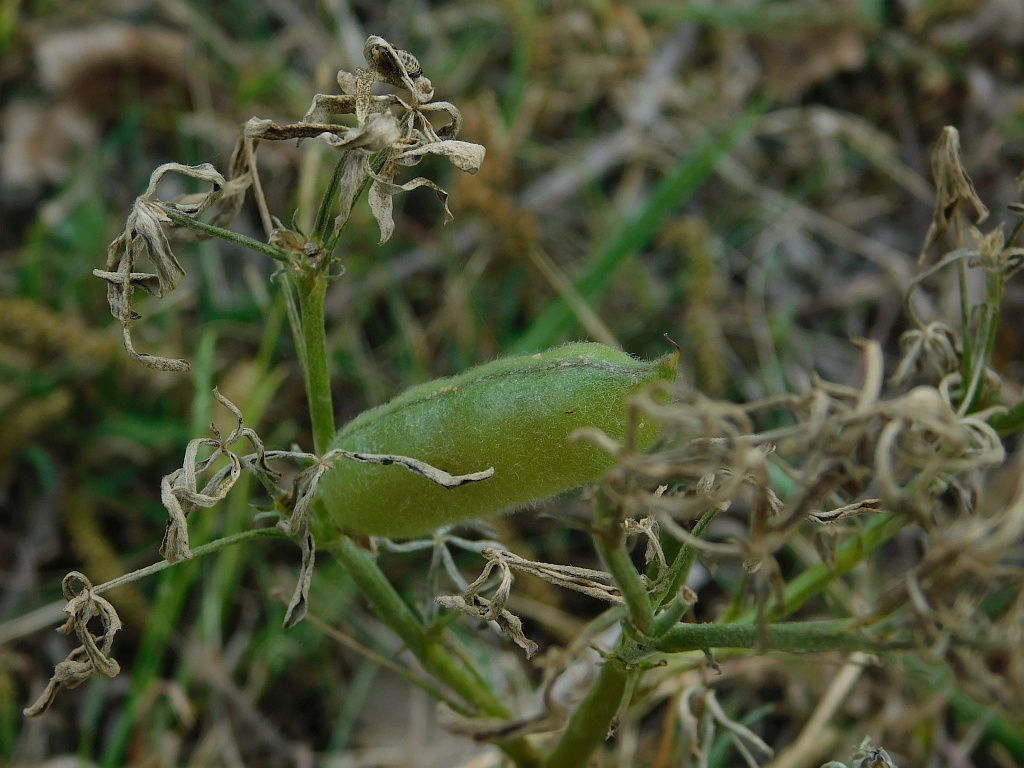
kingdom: Plantae
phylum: Tracheophyta
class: Magnoliopsida
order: Fabales
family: Fabaceae
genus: Lupinus
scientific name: Lupinus angustifolius
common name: Narrow-leaved lupin
